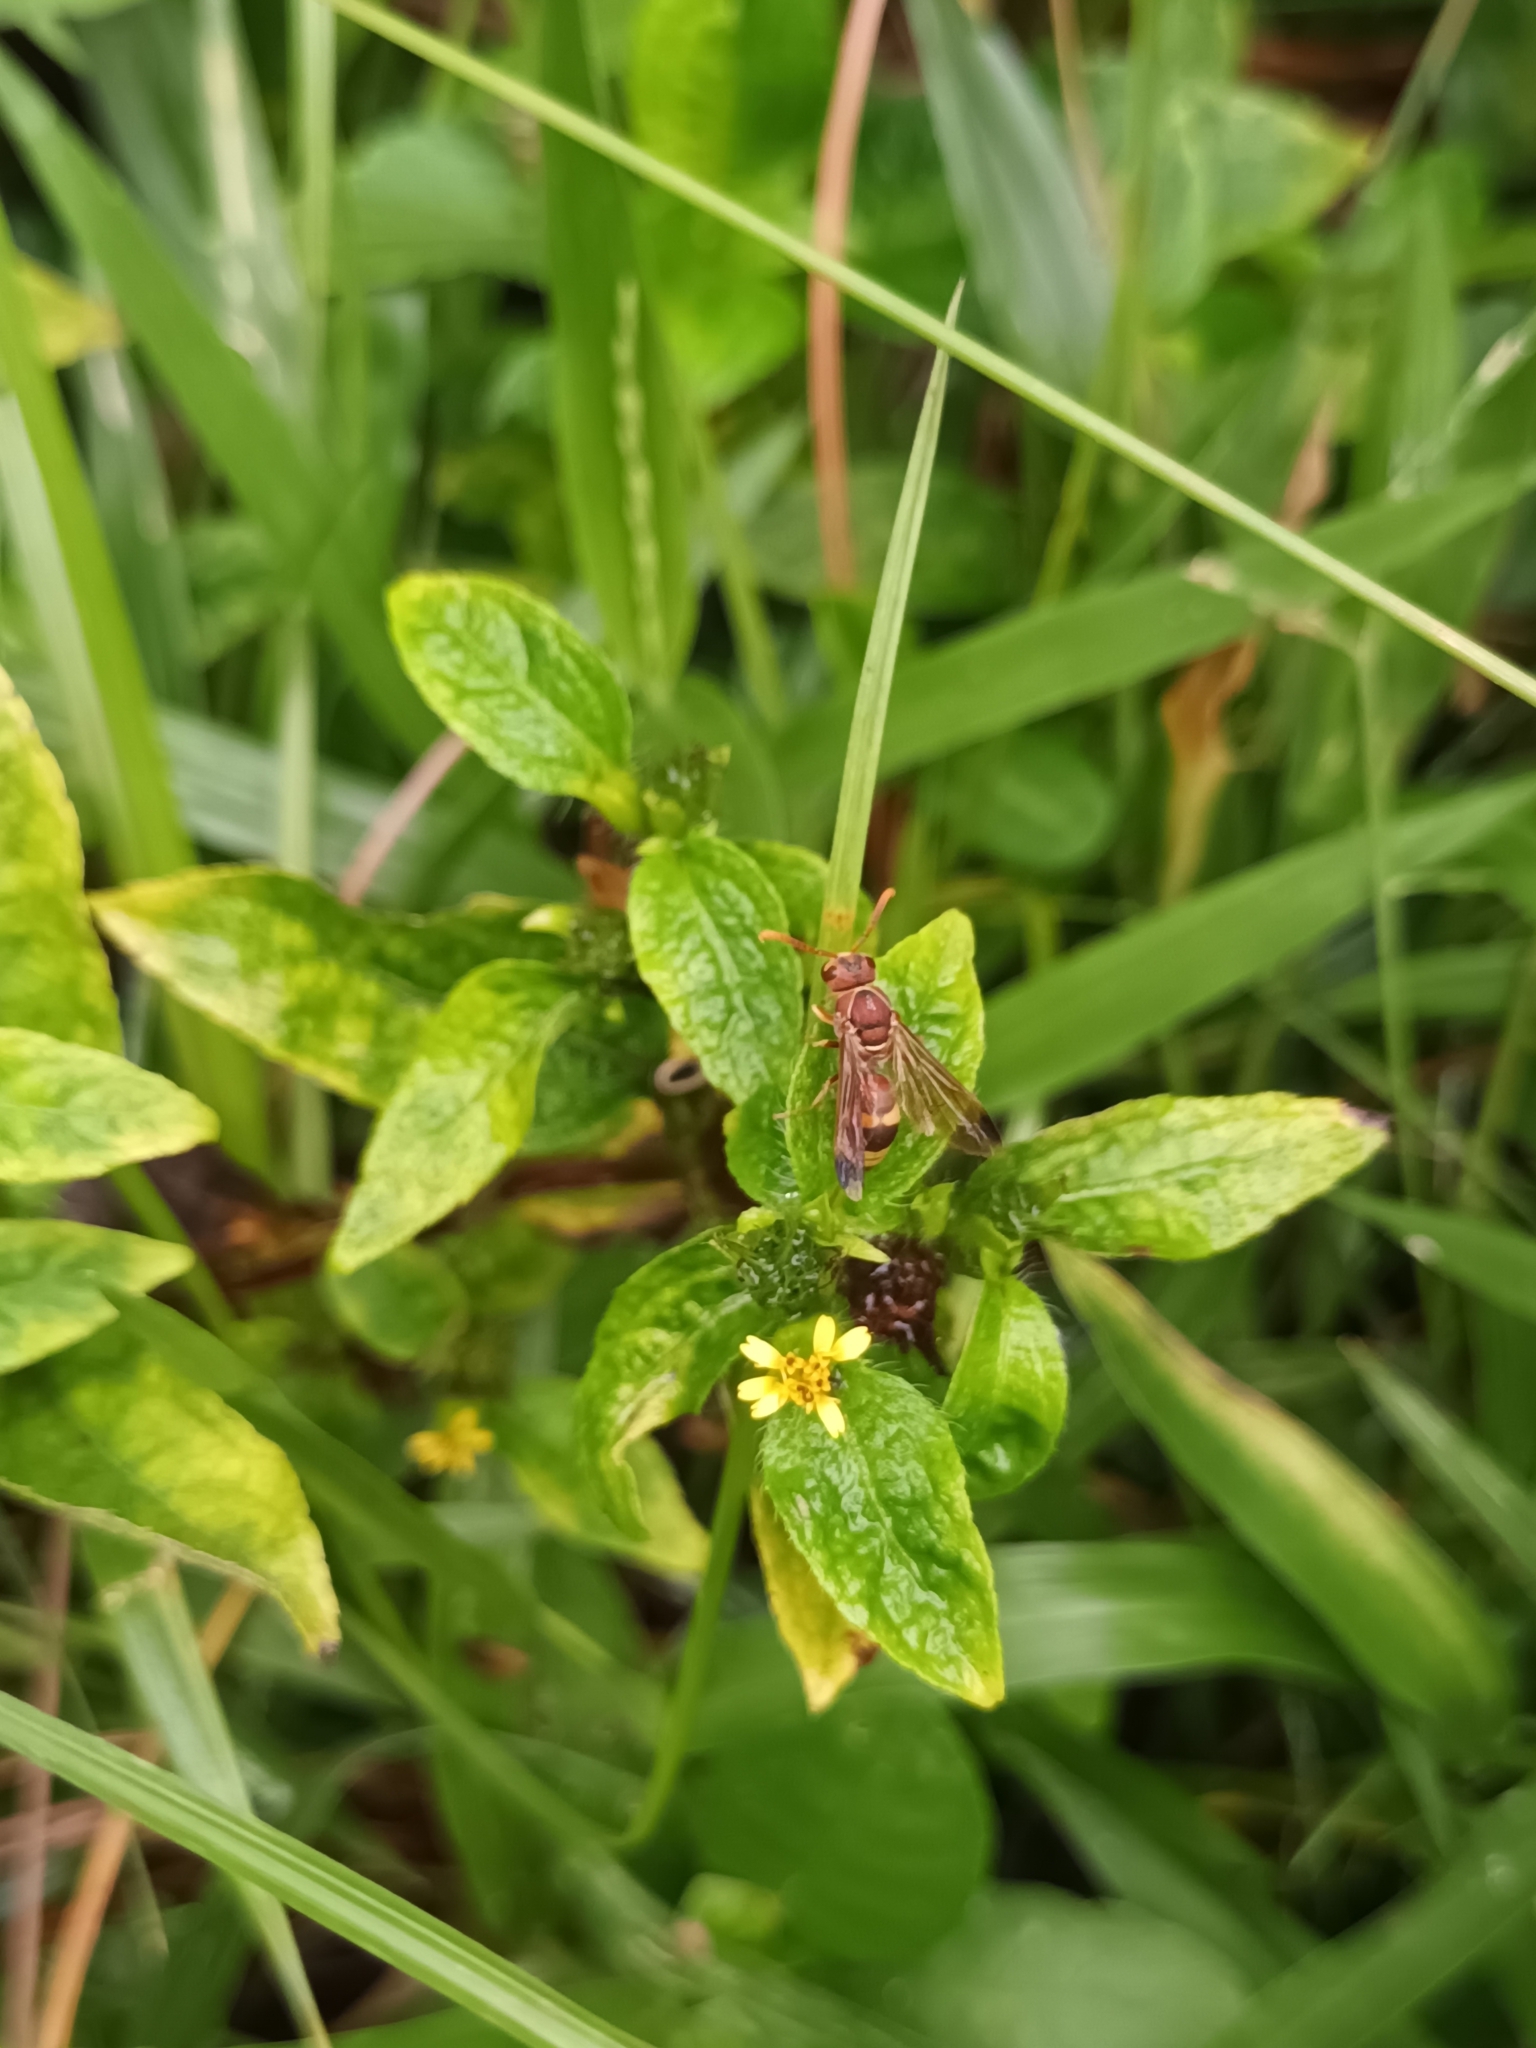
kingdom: Animalia
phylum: Arthropoda
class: Insecta
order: Hymenoptera
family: Eumenidae
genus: Antodynerus
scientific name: Antodynerus punctatipennis
